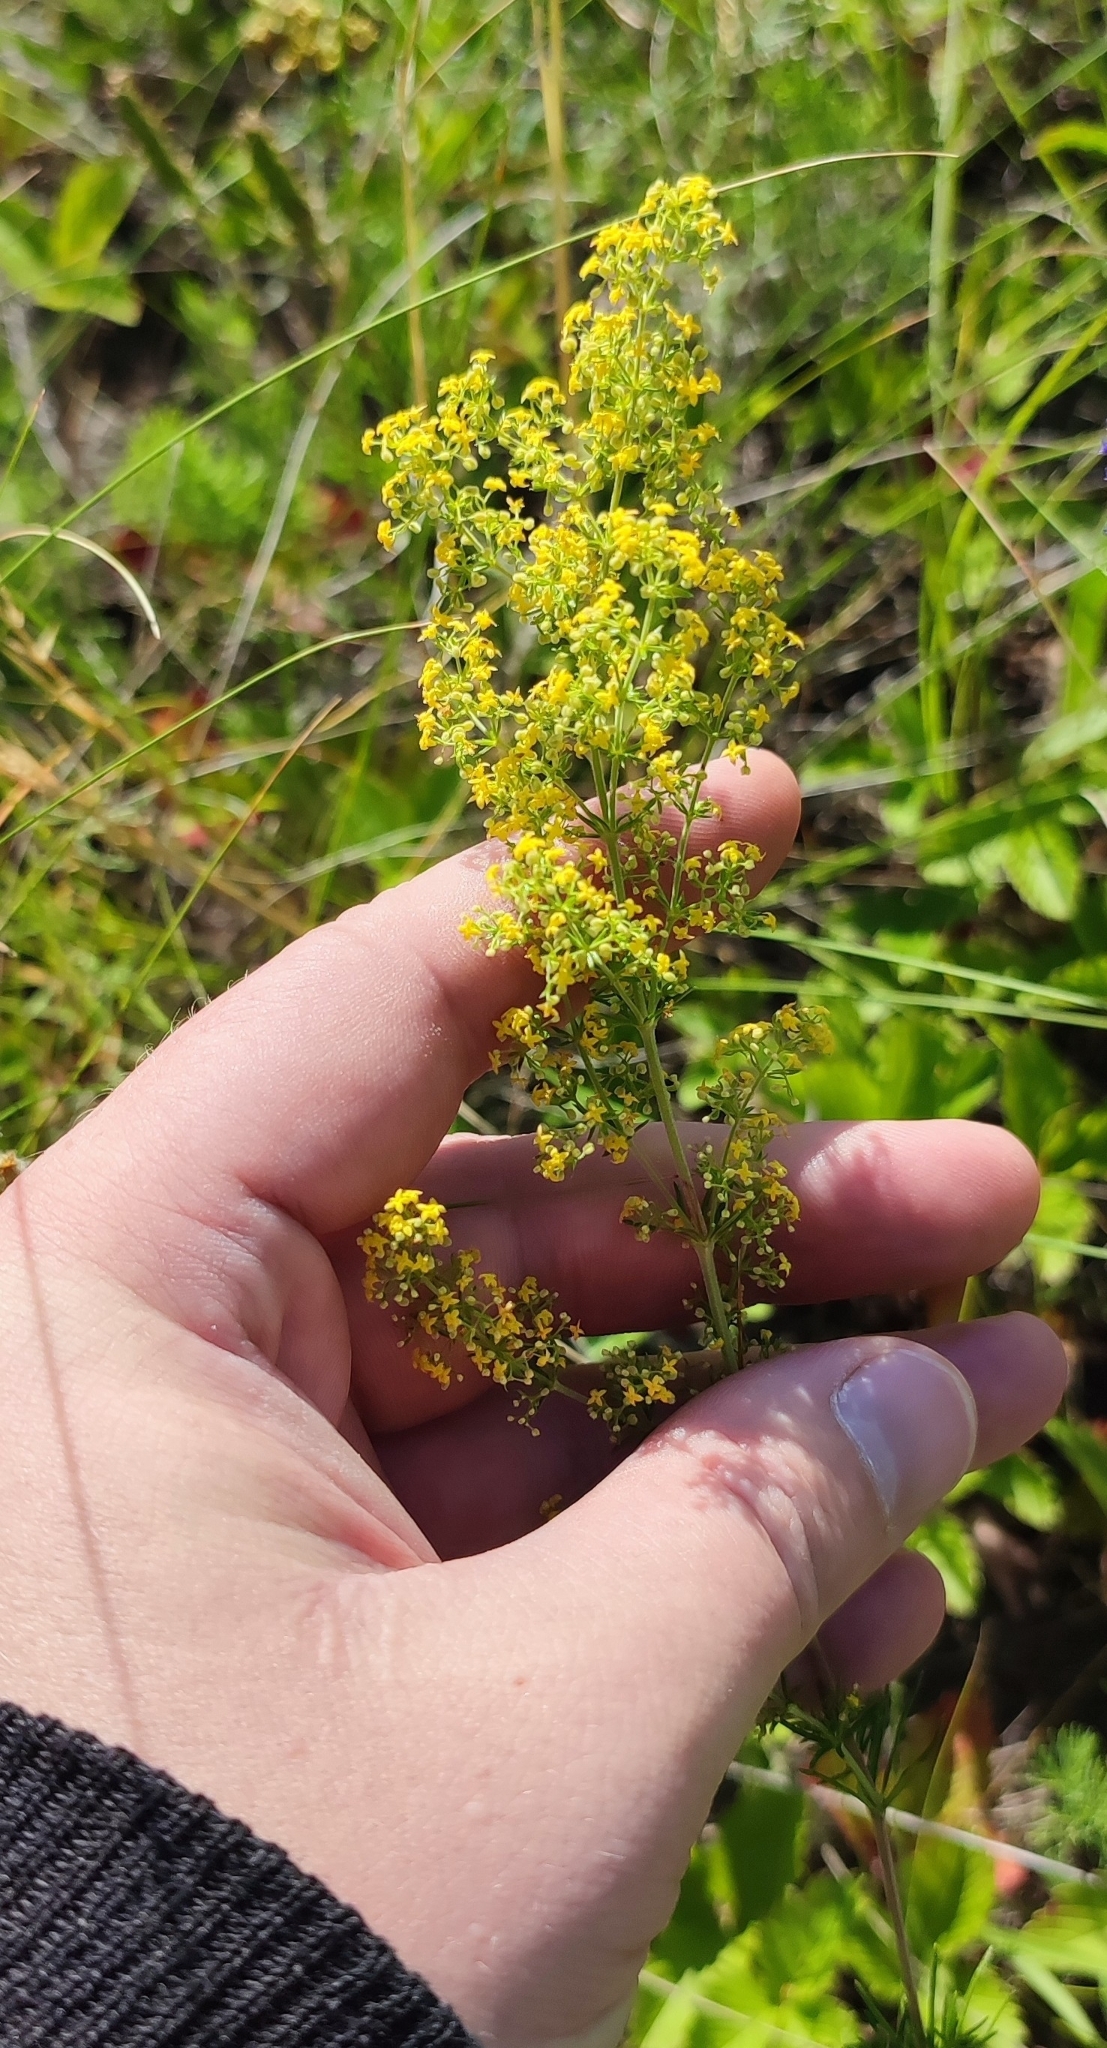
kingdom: Plantae
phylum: Tracheophyta
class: Magnoliopsida
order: Gentianales
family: Rubiaceae
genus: Galium
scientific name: Galium verum
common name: Lady's bedstraw
